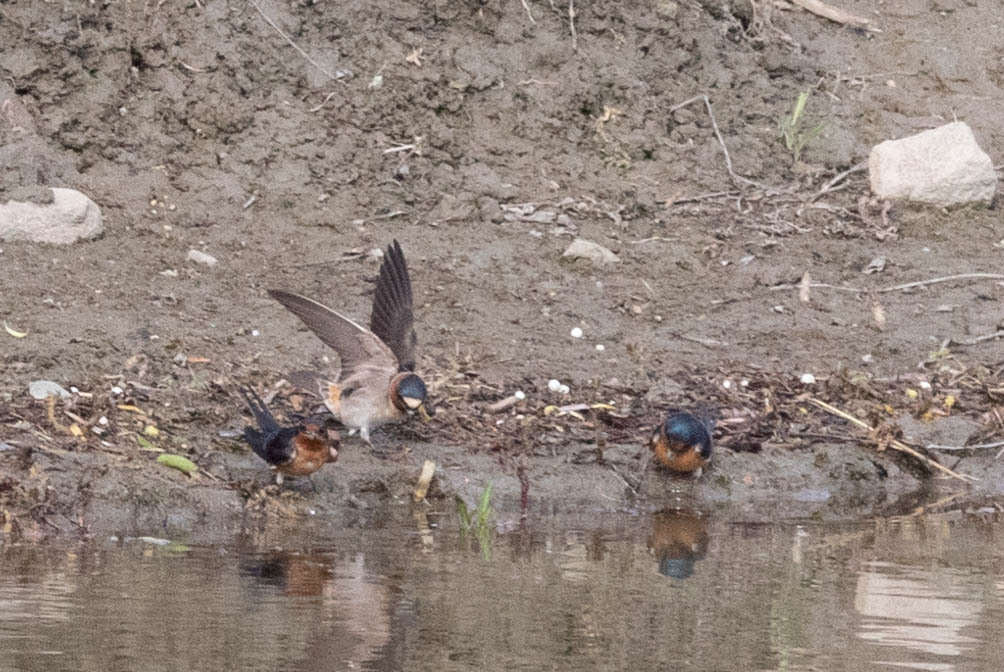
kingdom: Animalia
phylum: Chordata
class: Aves
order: Passeriformes
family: Hirundinidae
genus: Petrochelidon
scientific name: Petrochelidon pyrrhonota
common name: American cliff swallow
